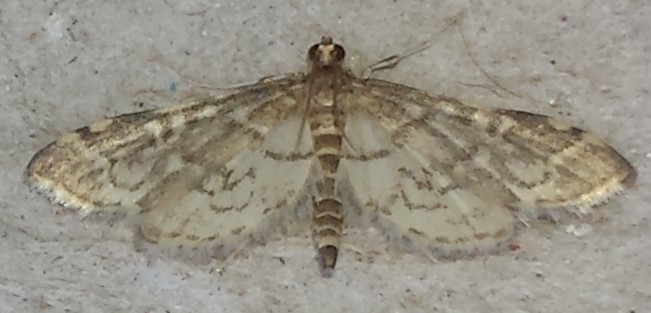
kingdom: Animalia
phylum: Arthropoda
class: Insecta
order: Lepidoptera
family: Crambidae
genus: Anageshna
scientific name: Anageshna primordialis
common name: Yellow-spotted webworm moth
